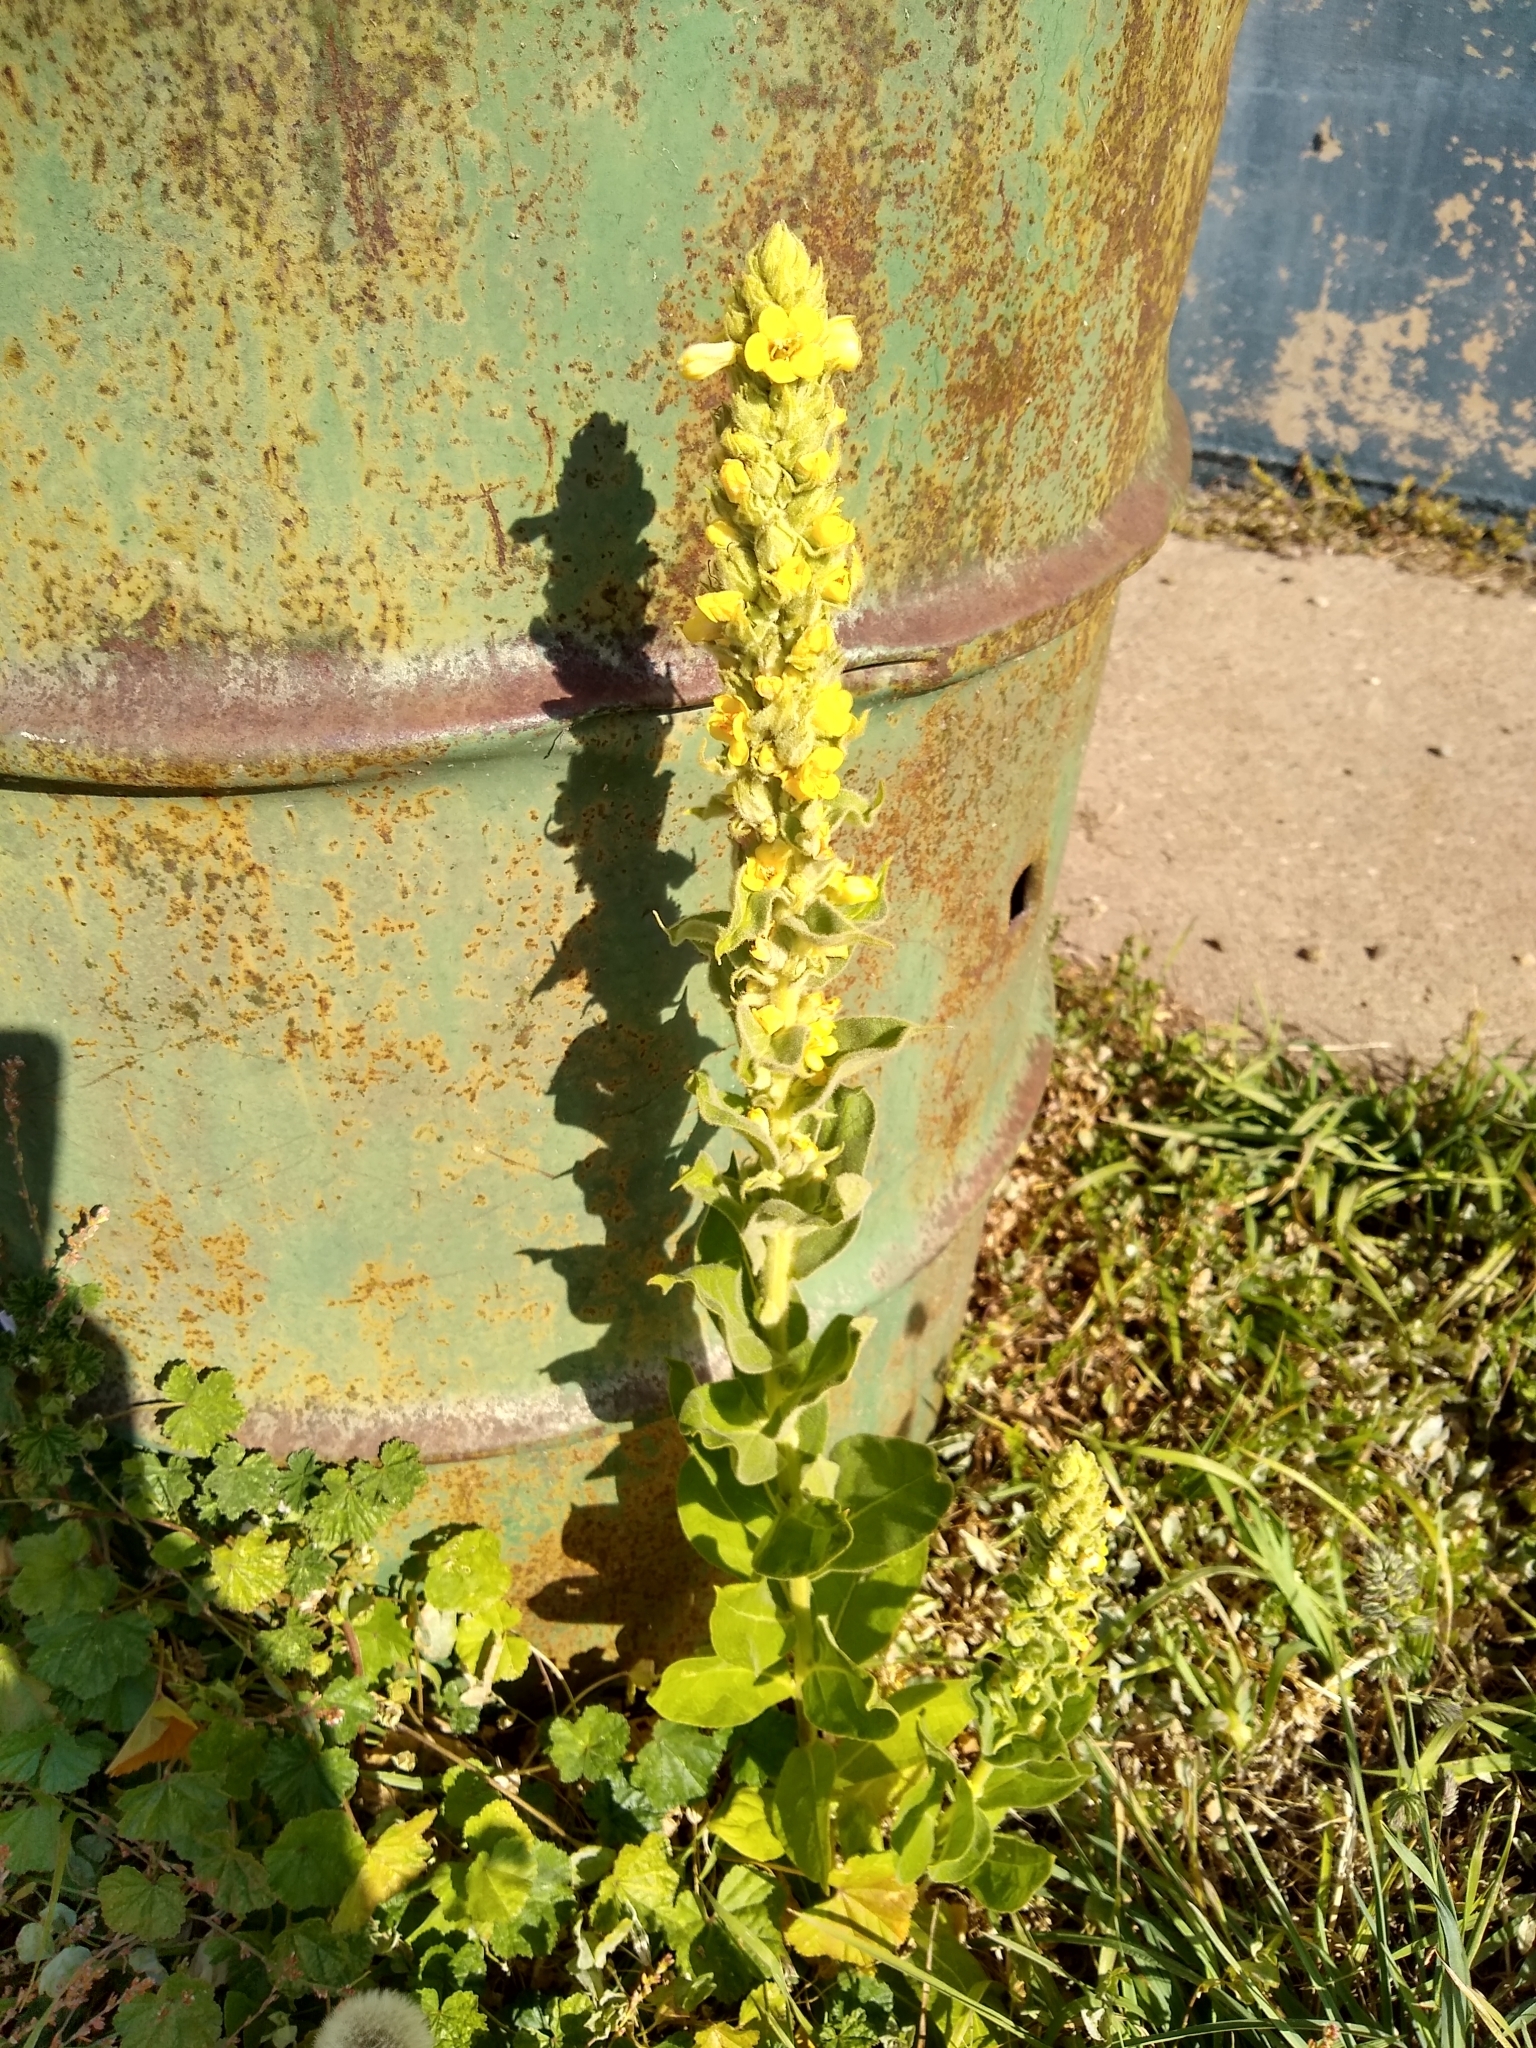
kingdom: Plantae
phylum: Tracheophyta
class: Magnoliopsida
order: Lamiales
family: Scrophulariaceae
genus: Verbascum
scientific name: Verbascum thapsus
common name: Common mullein
